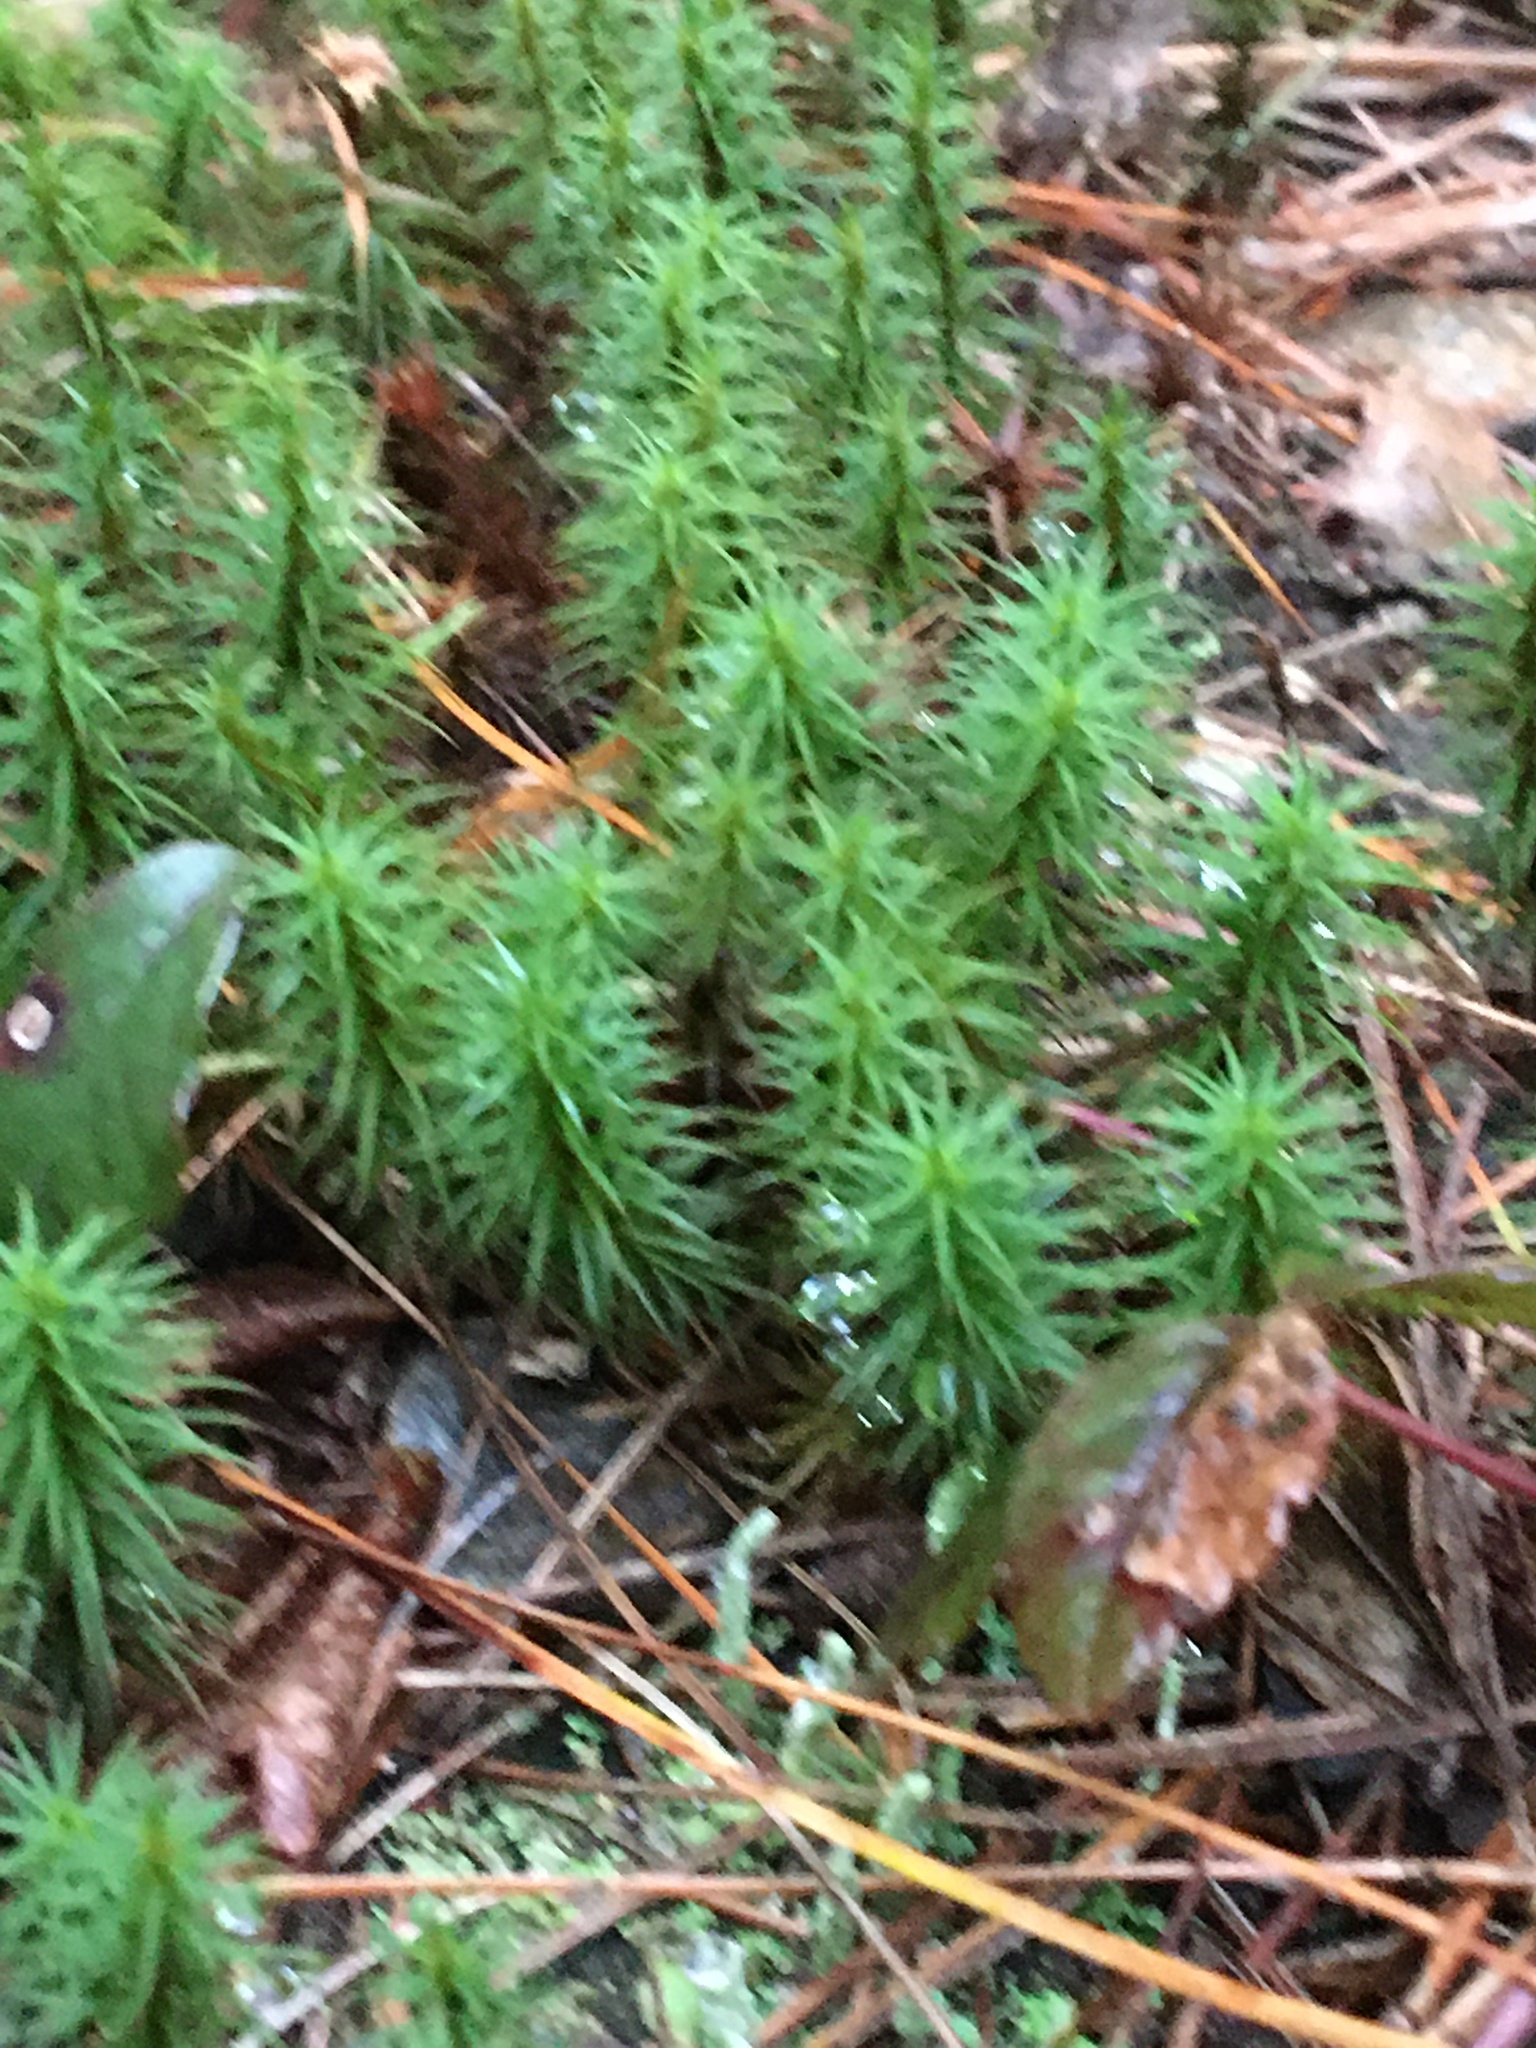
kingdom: Plantae
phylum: Bryophyta
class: Polytrichopsida
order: Polytrichales
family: Polytrichaceae
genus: Polytrichum
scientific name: Polytrichum commune
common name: Common haircap
